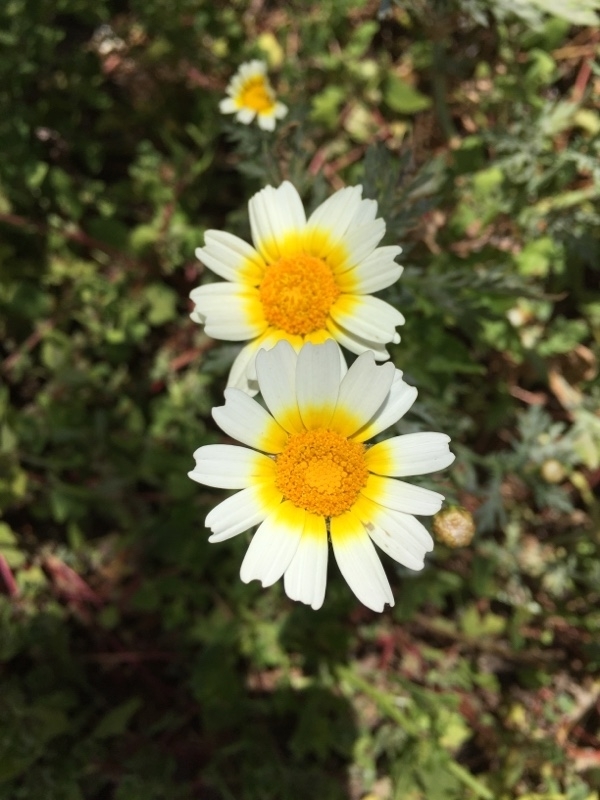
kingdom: Plantae
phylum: Tracheophyta
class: Magnoliopsida
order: Asterales
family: Asteraceae
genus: Glebionis
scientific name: Glebionis coronaria
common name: Crowndaisy
